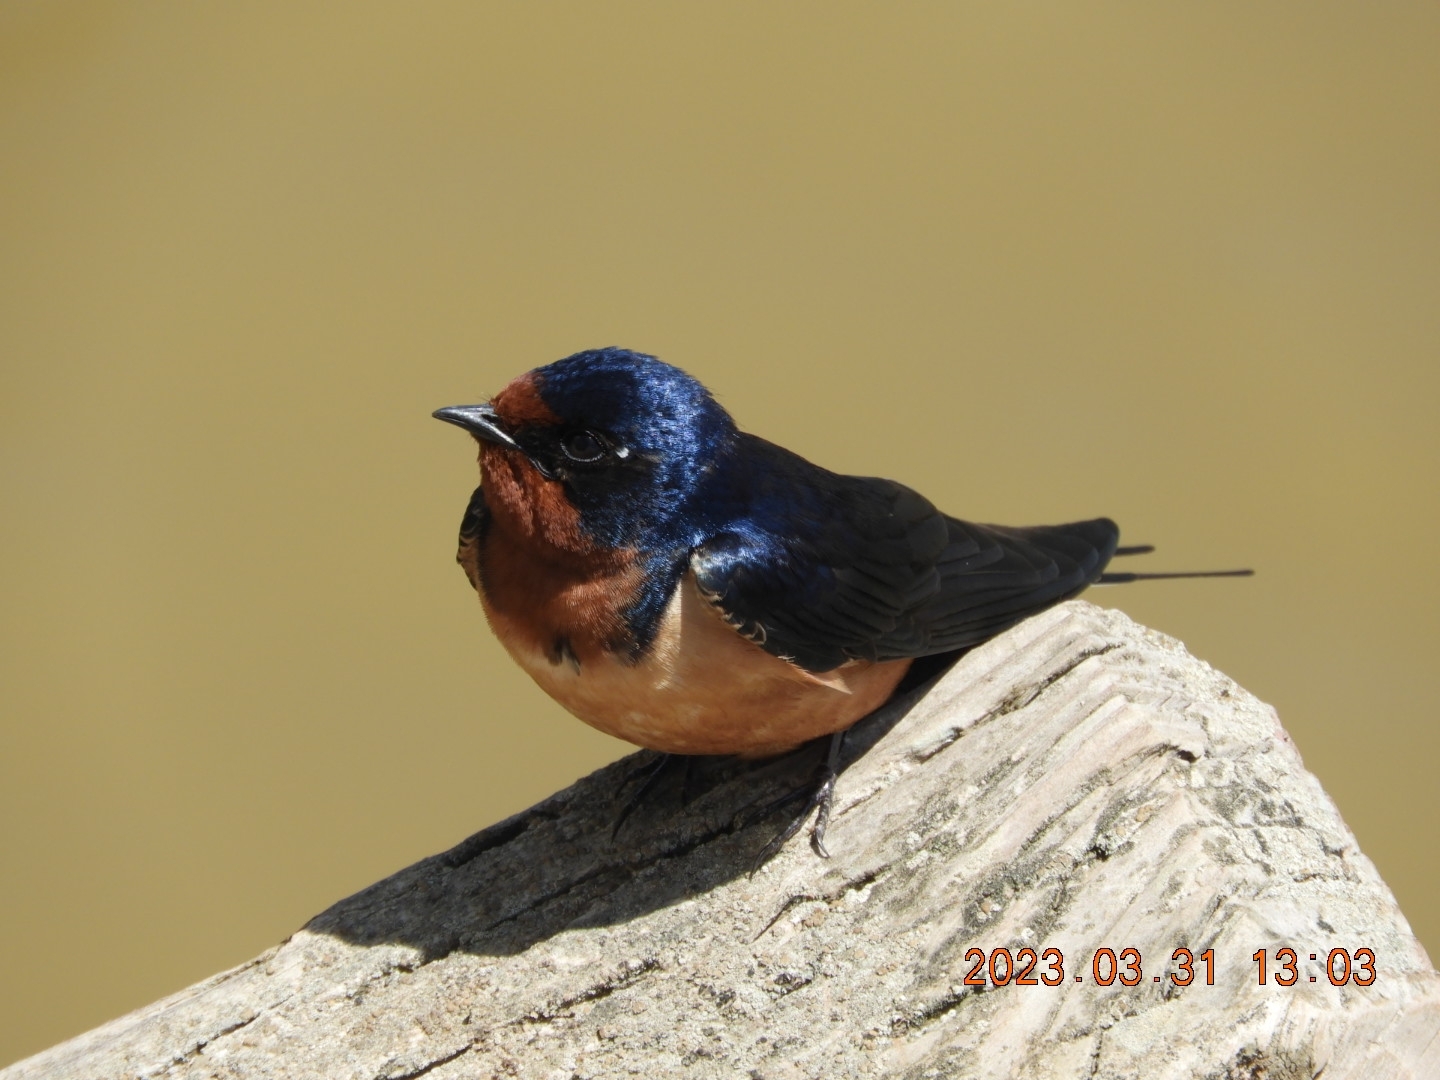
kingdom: Animalia
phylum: Chordata
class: Aves
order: Passeriformes
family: Hirundinidae
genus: Hirundo
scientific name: Hirundo rustica
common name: Barn swallow
